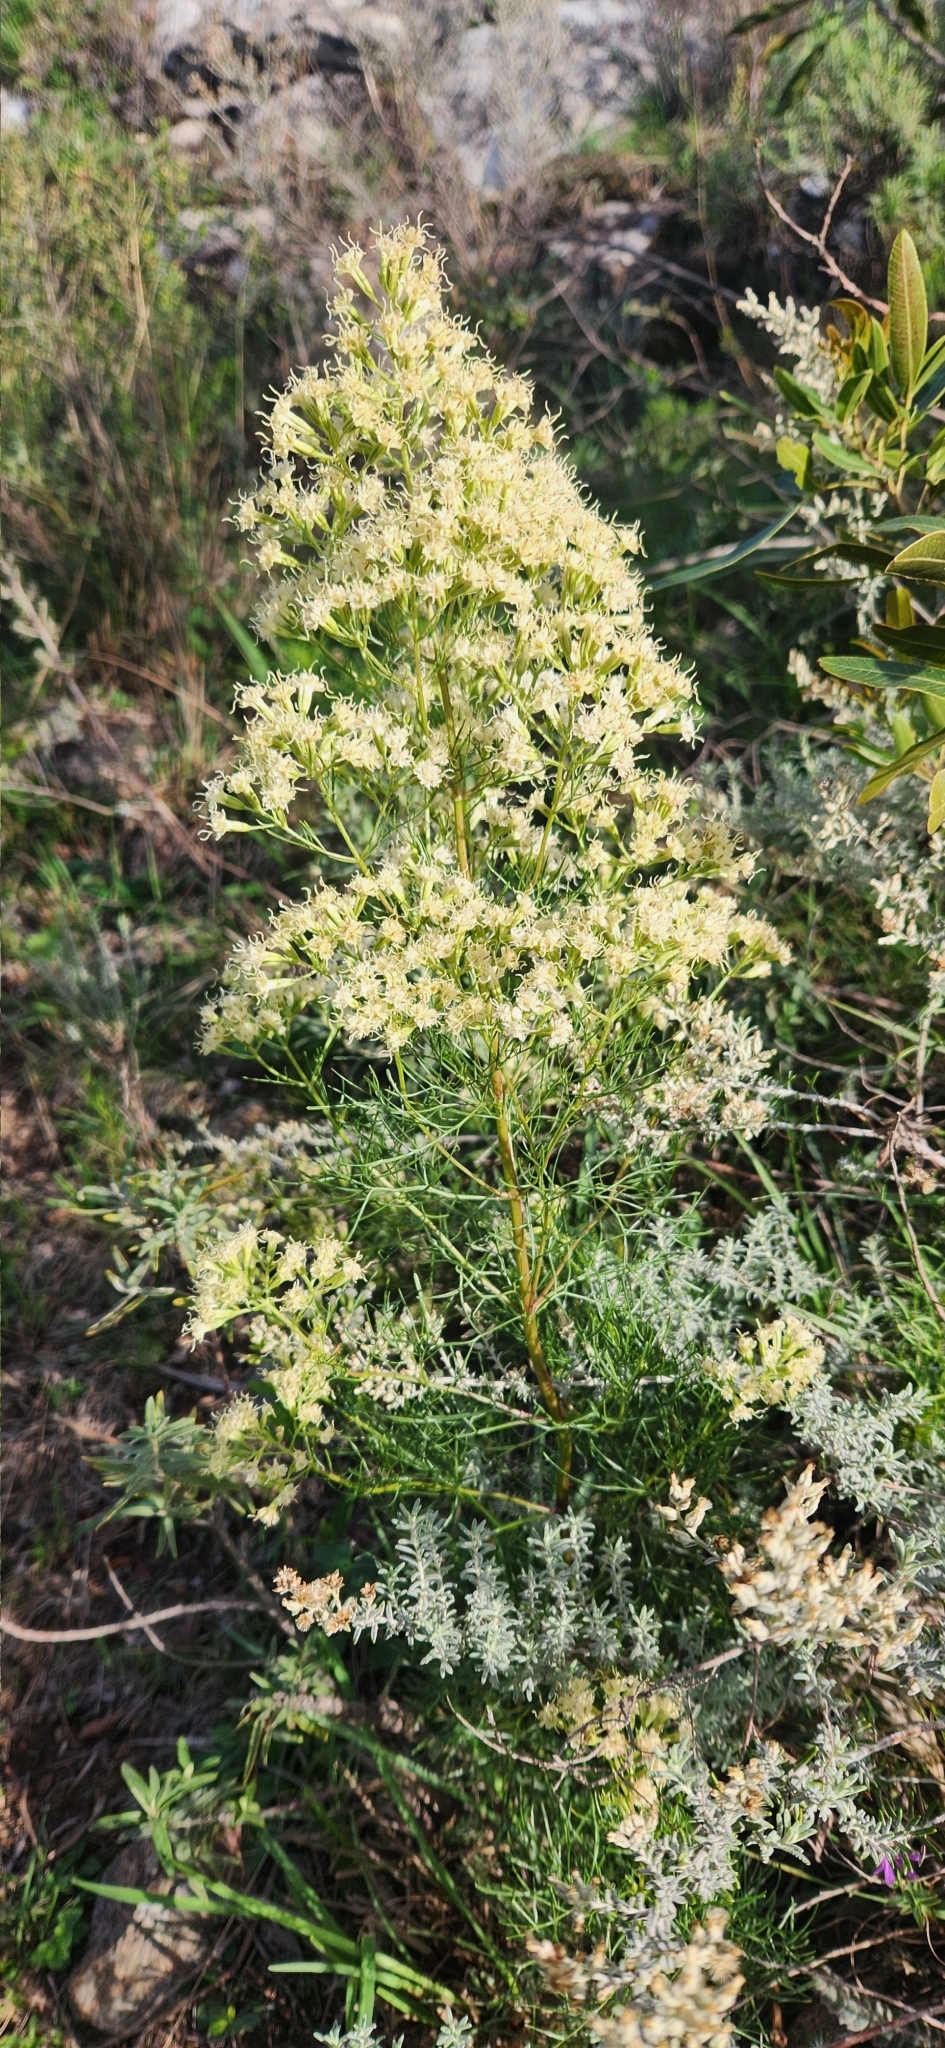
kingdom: Plantae
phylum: Tracheophyta
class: Magnoliopsida
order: Asterales
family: Asteraceae
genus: Mikania
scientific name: Mikania anethifolia
